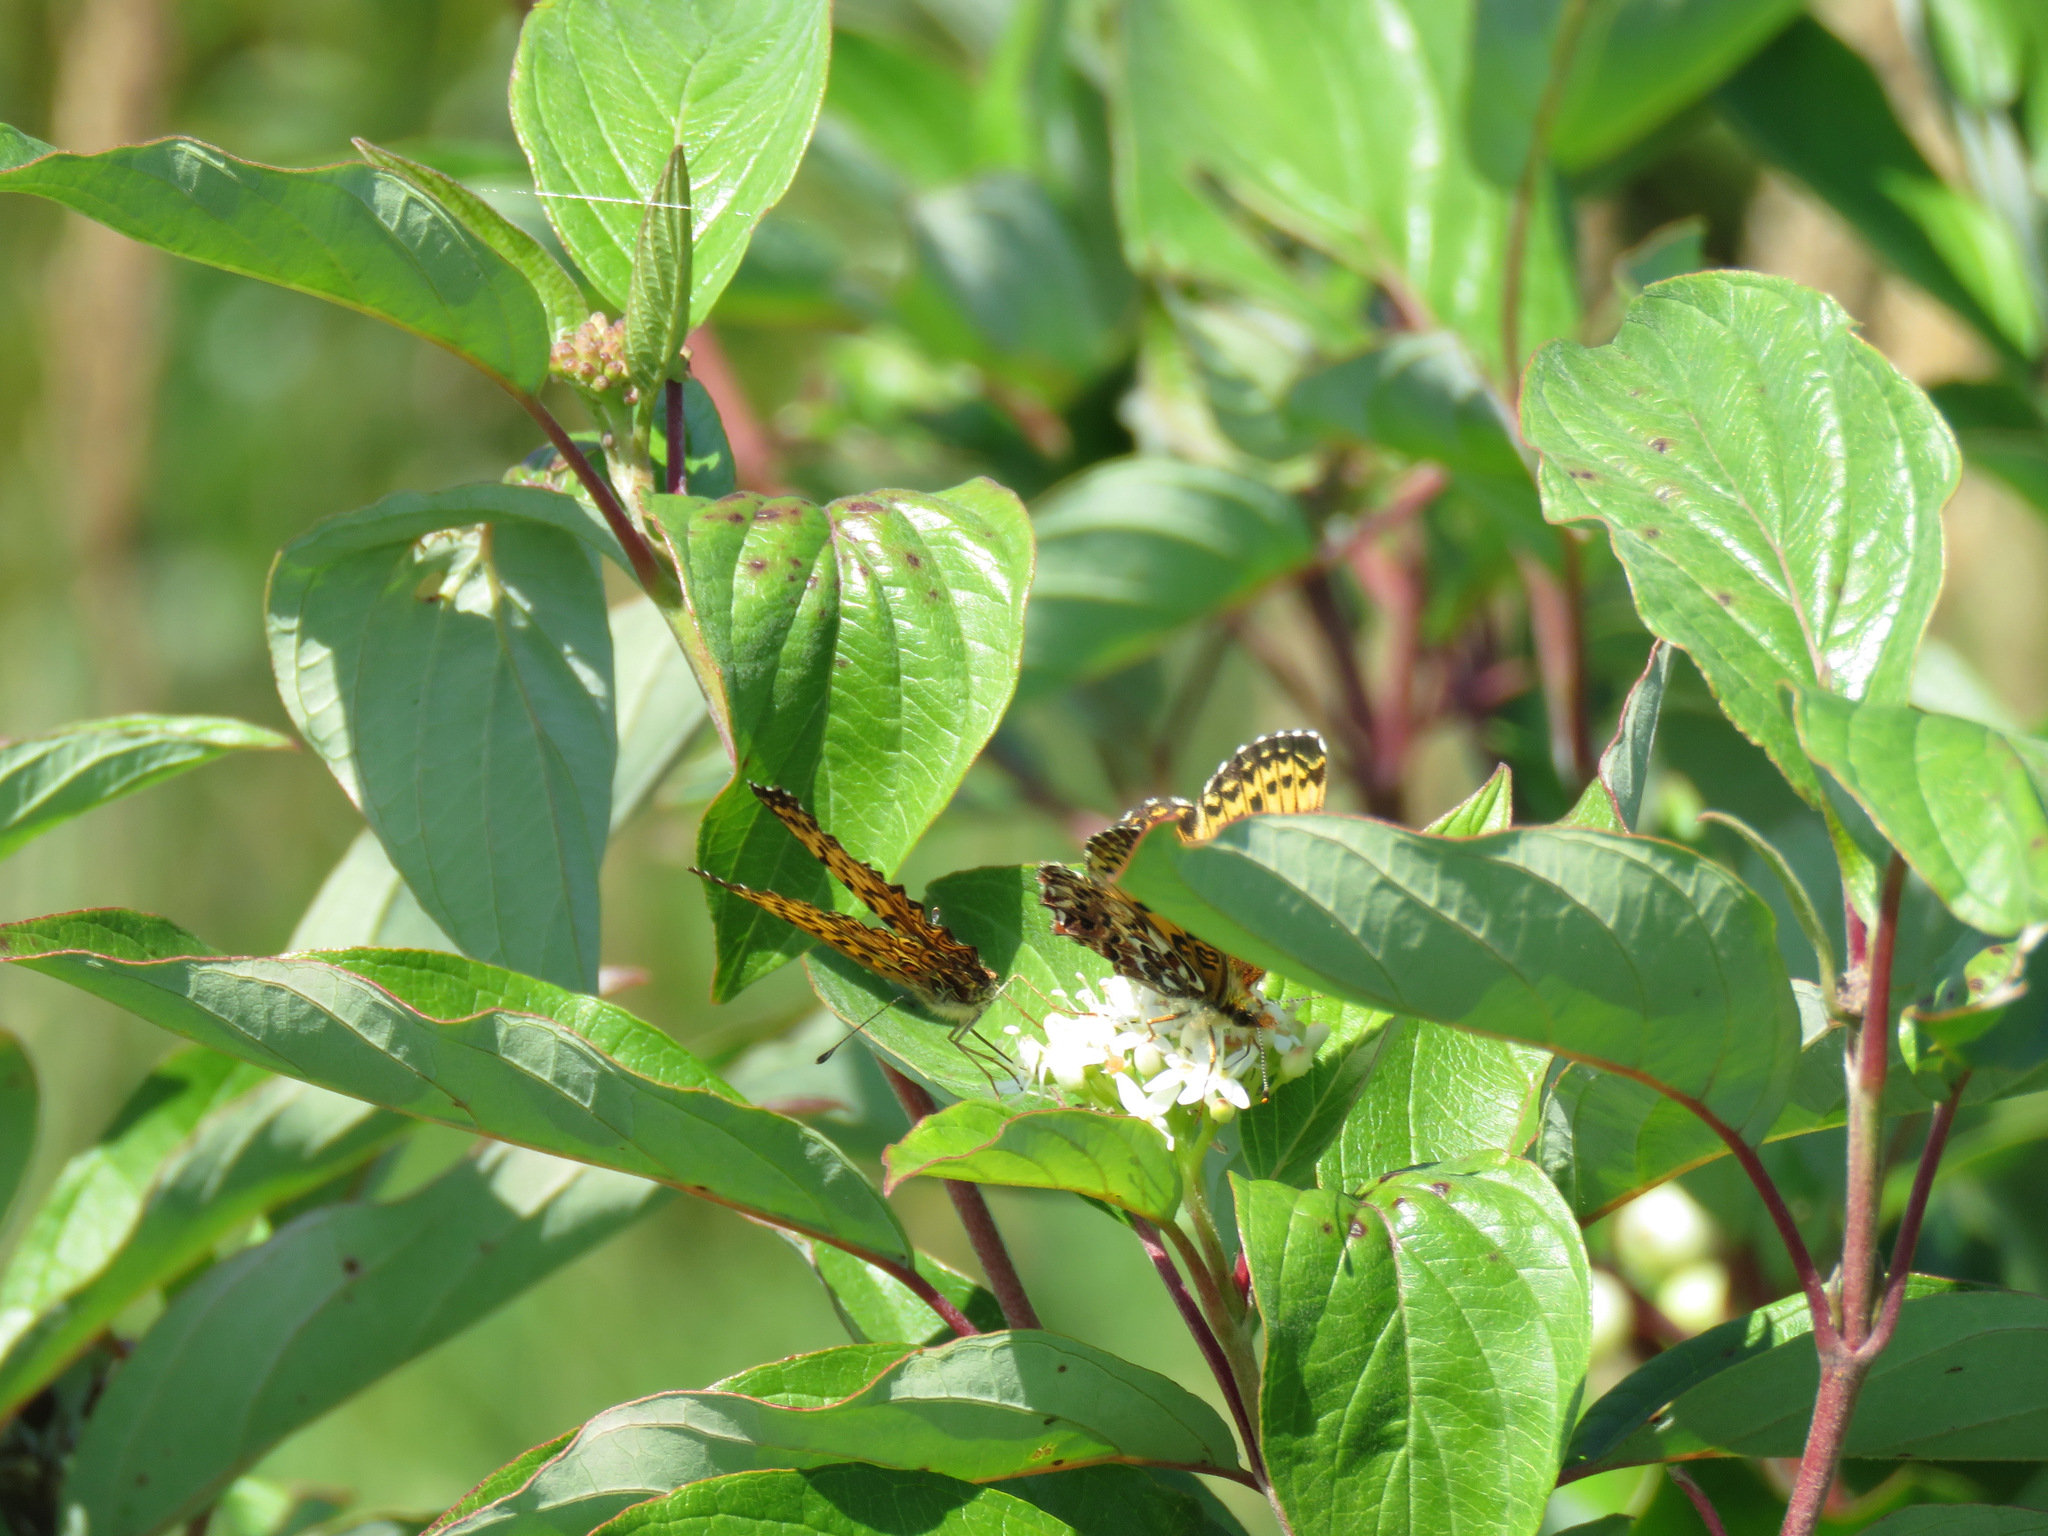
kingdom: Animalia
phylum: Arthropoda
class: Insecta
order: Lepidoptera
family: Nymphalidae
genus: Boloria
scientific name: Boloria chariclea
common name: Arctic fritillary
